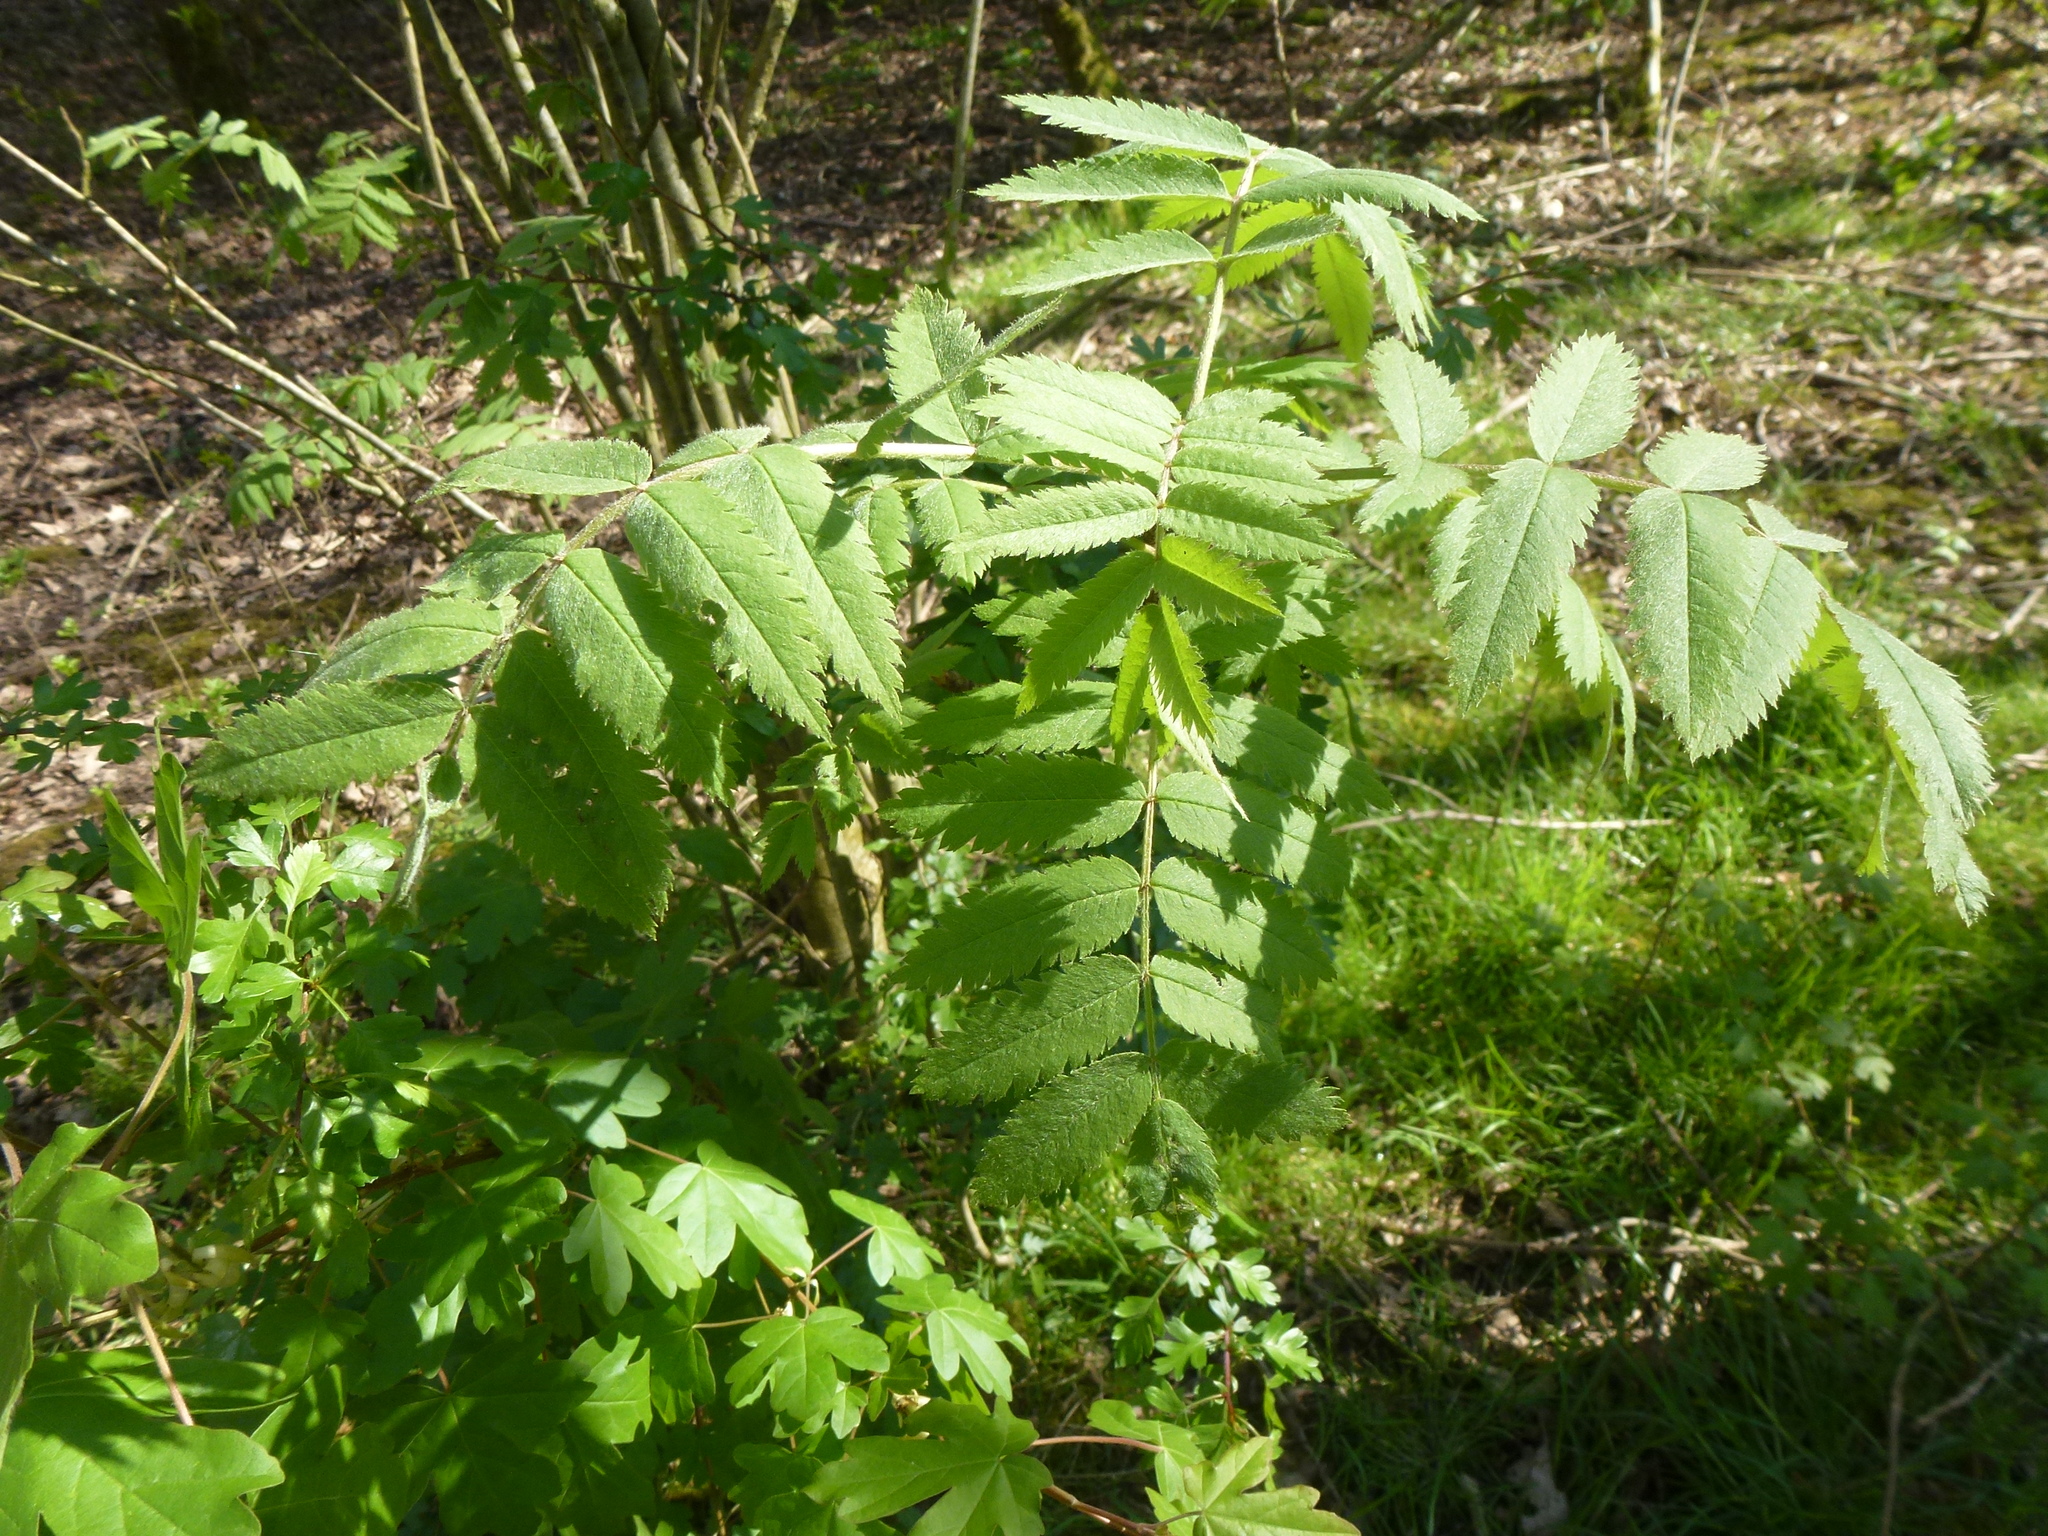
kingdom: Plantae
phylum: Tracheophyta
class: Magnoliopsida
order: Rosales
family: Rosaceae
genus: Sorbus
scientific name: Sorbus aucuparia
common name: Rowan
